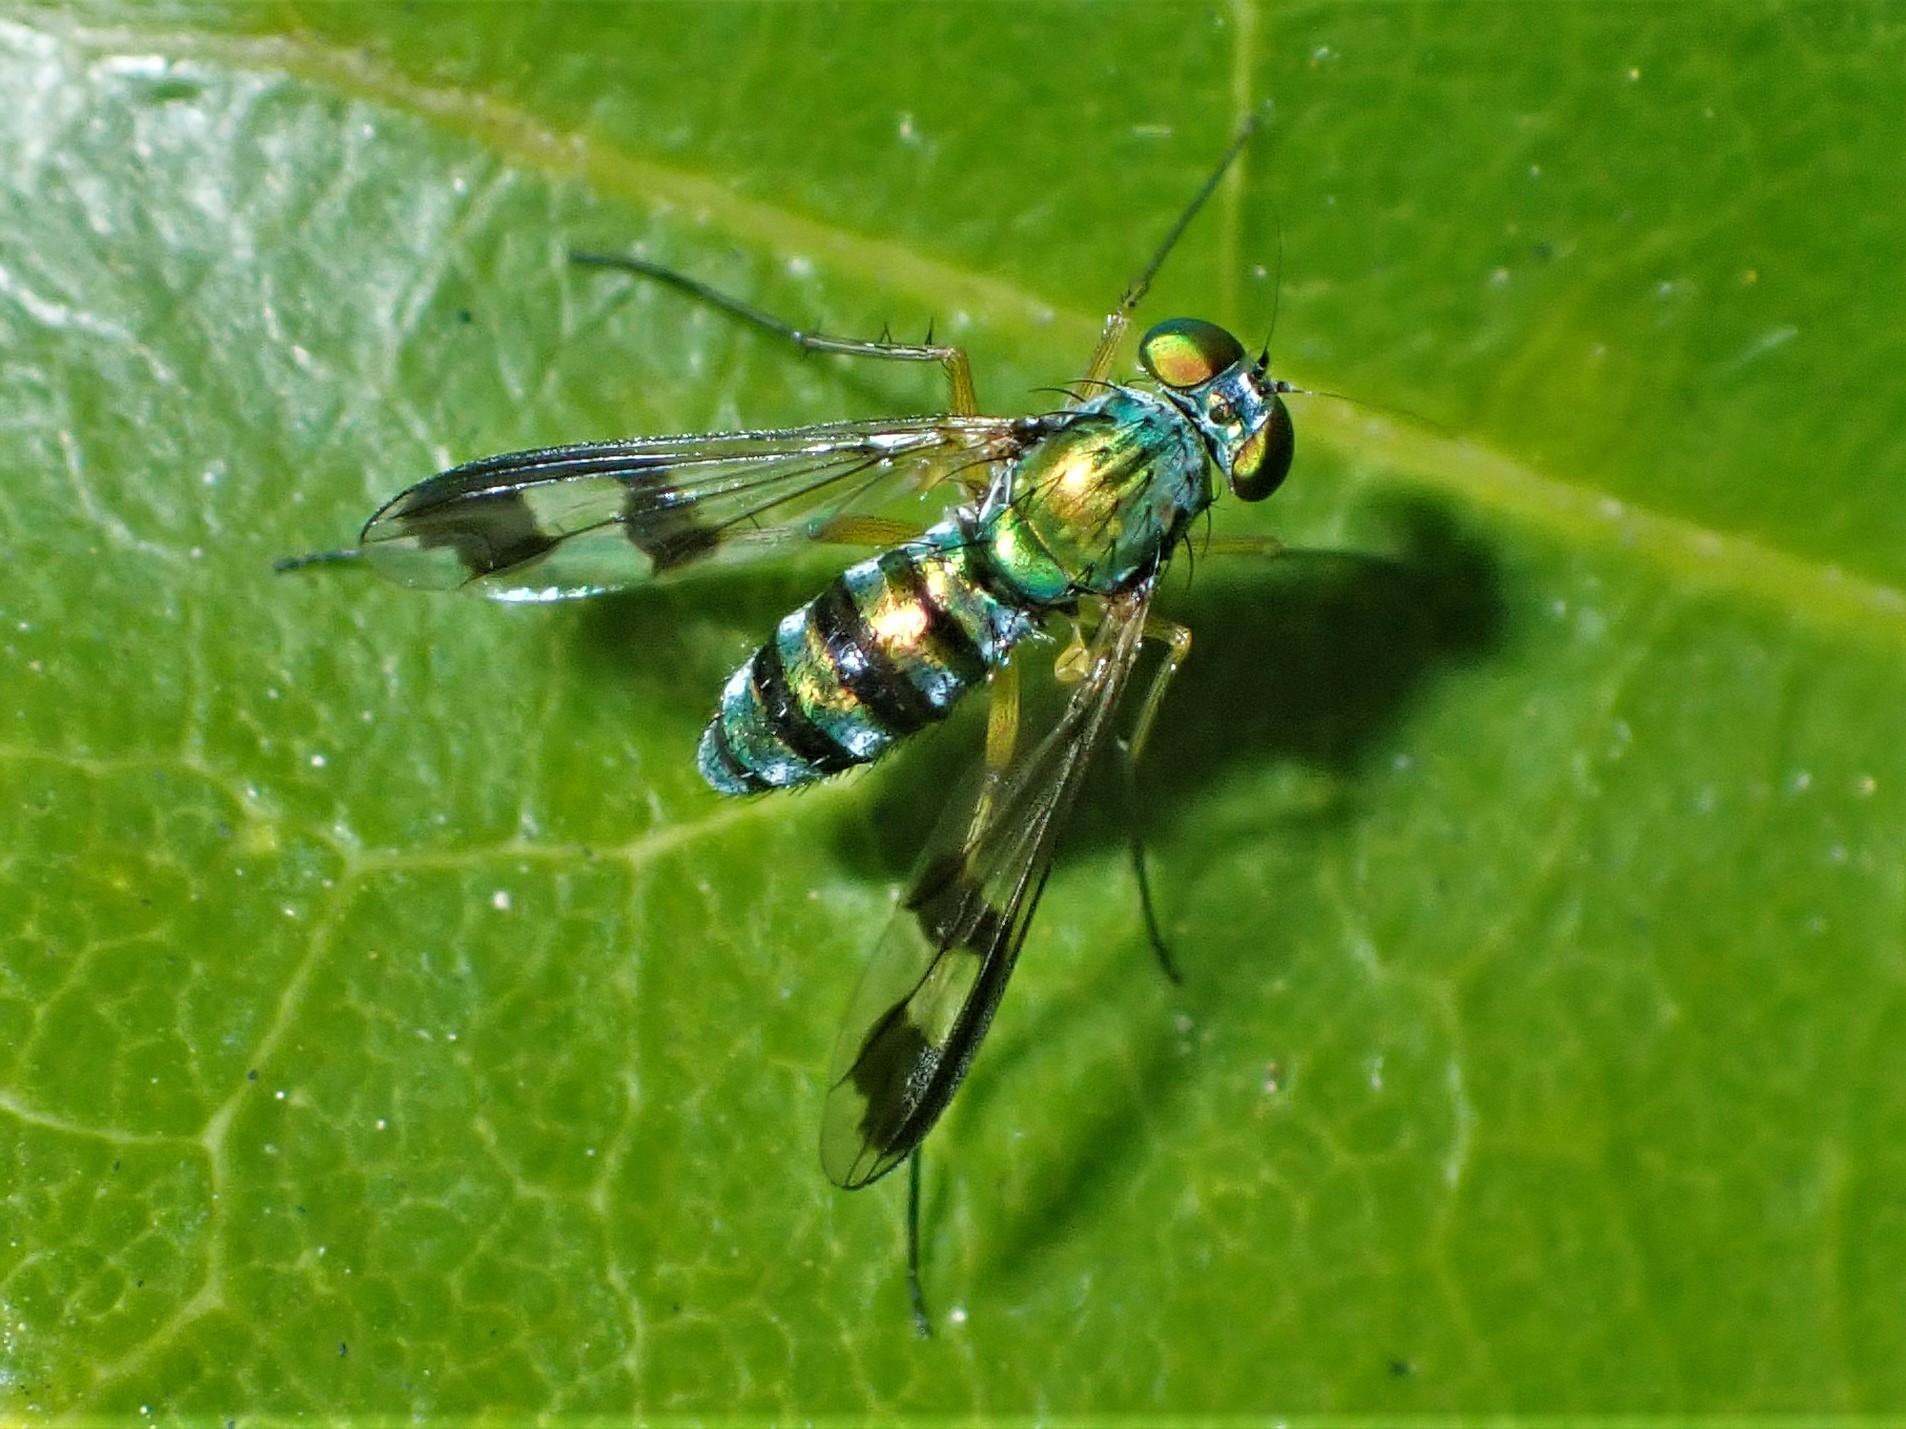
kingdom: Animalia
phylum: Arthropoda
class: Insecta
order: Diptera
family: Dolichopodidae
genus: Austrosciapus
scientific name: Austrosciapus proximus
